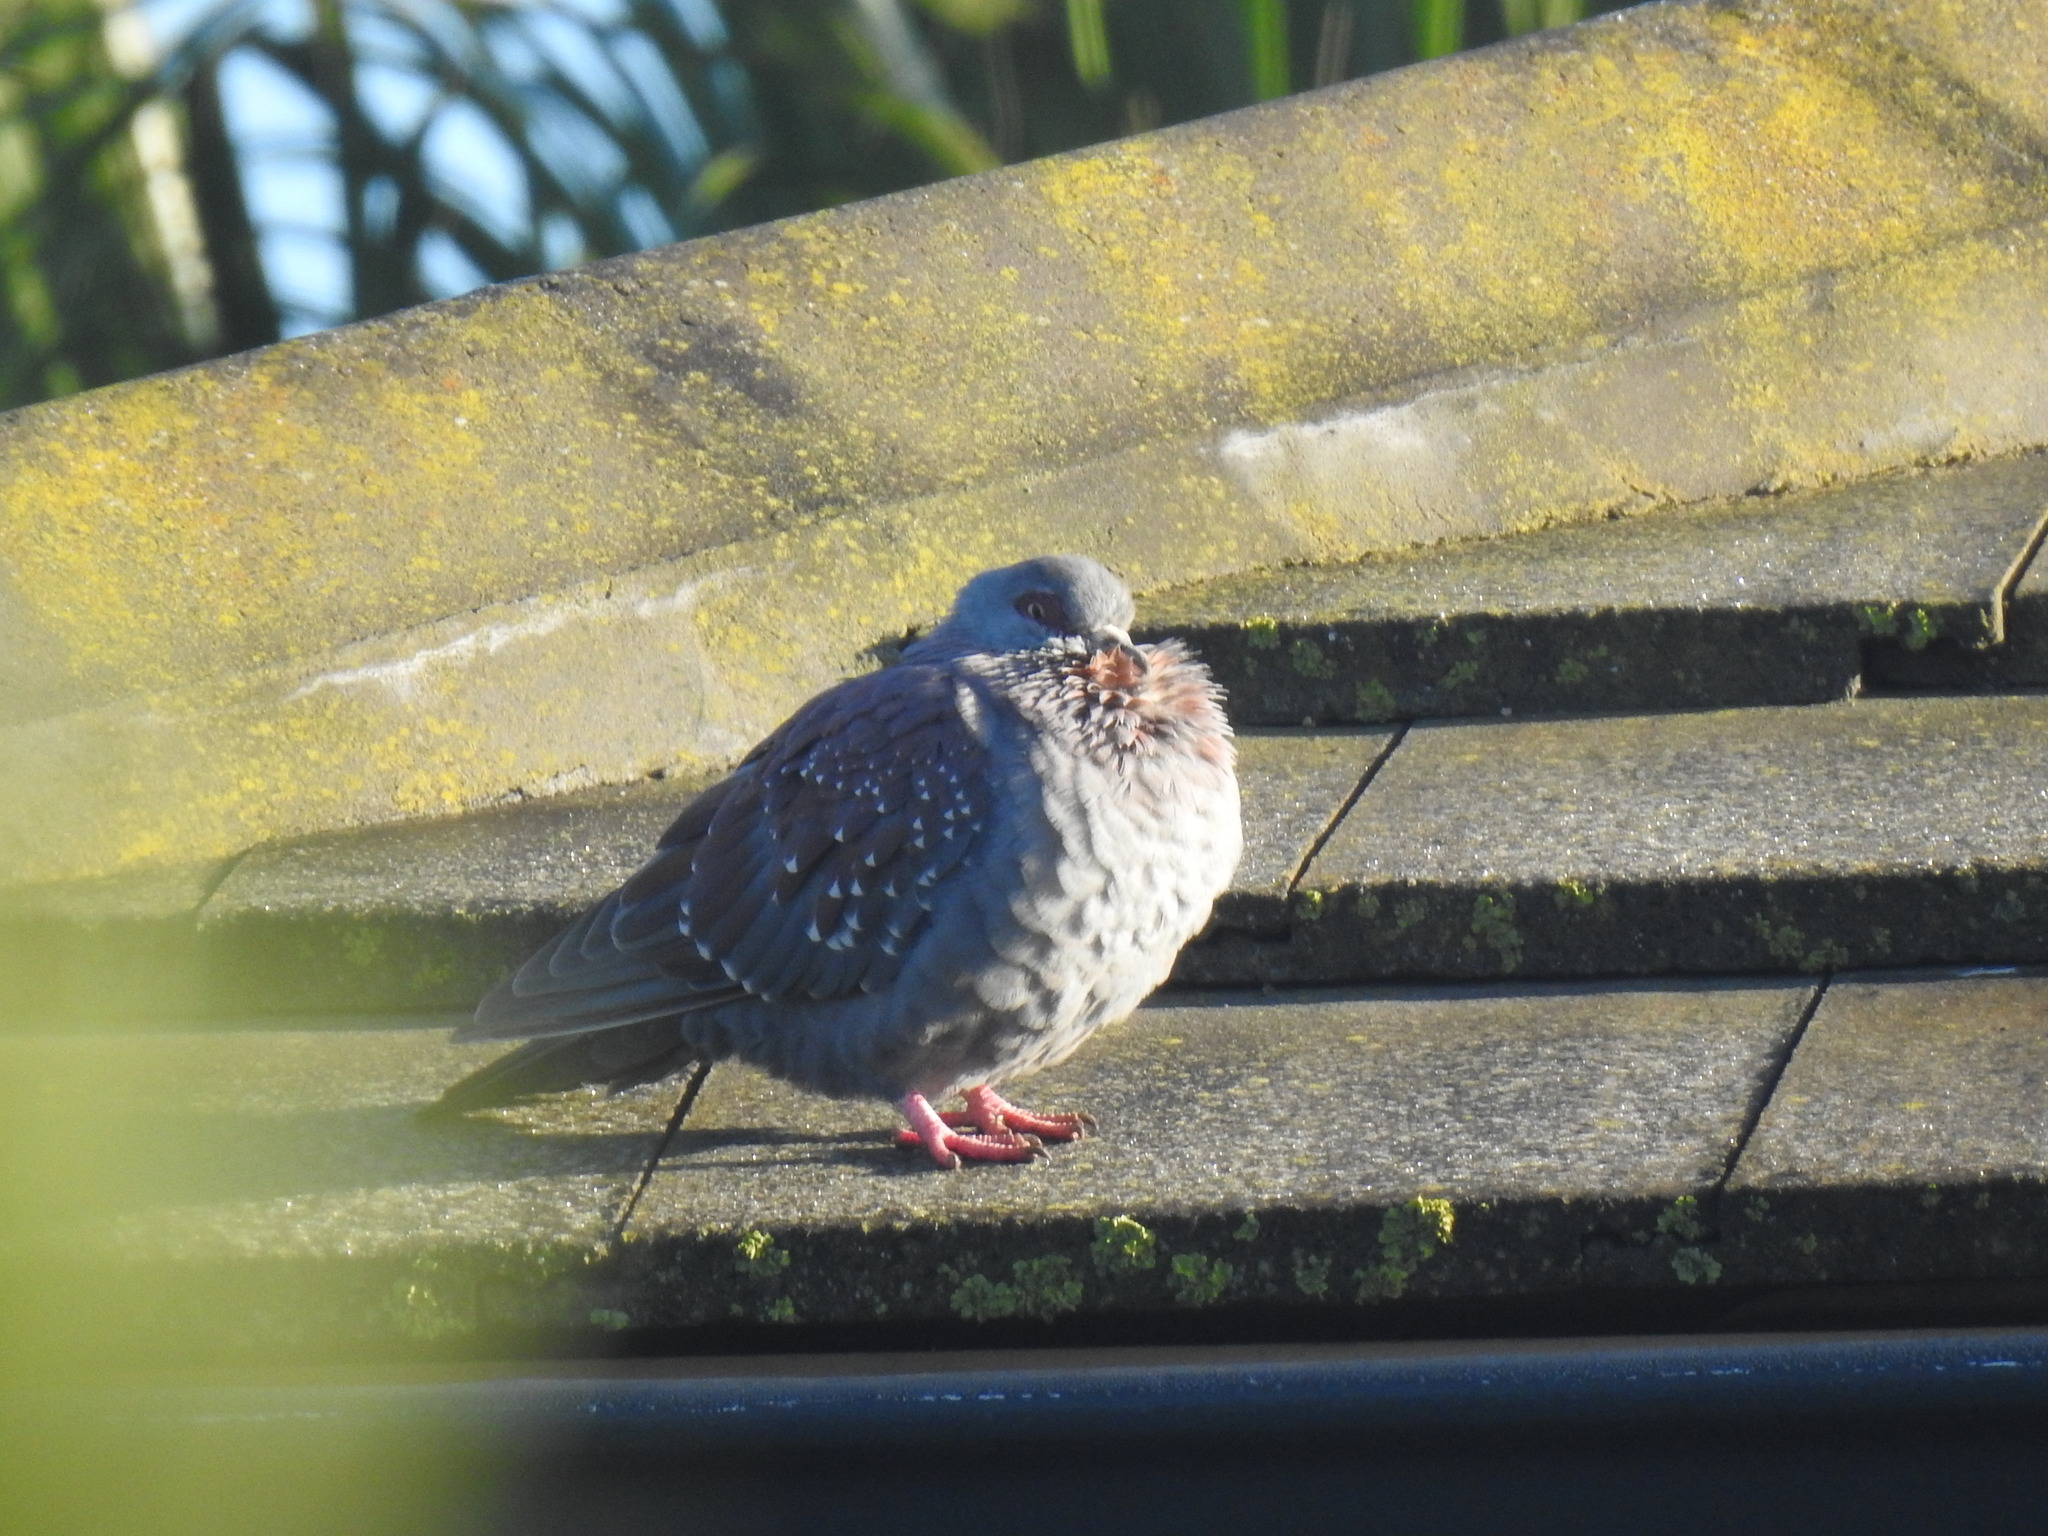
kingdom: Animalia
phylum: Chordata
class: Aves
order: Columbiformes
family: Columbidae
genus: Columba
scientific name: Columba guinea
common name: Speckled pigeon
